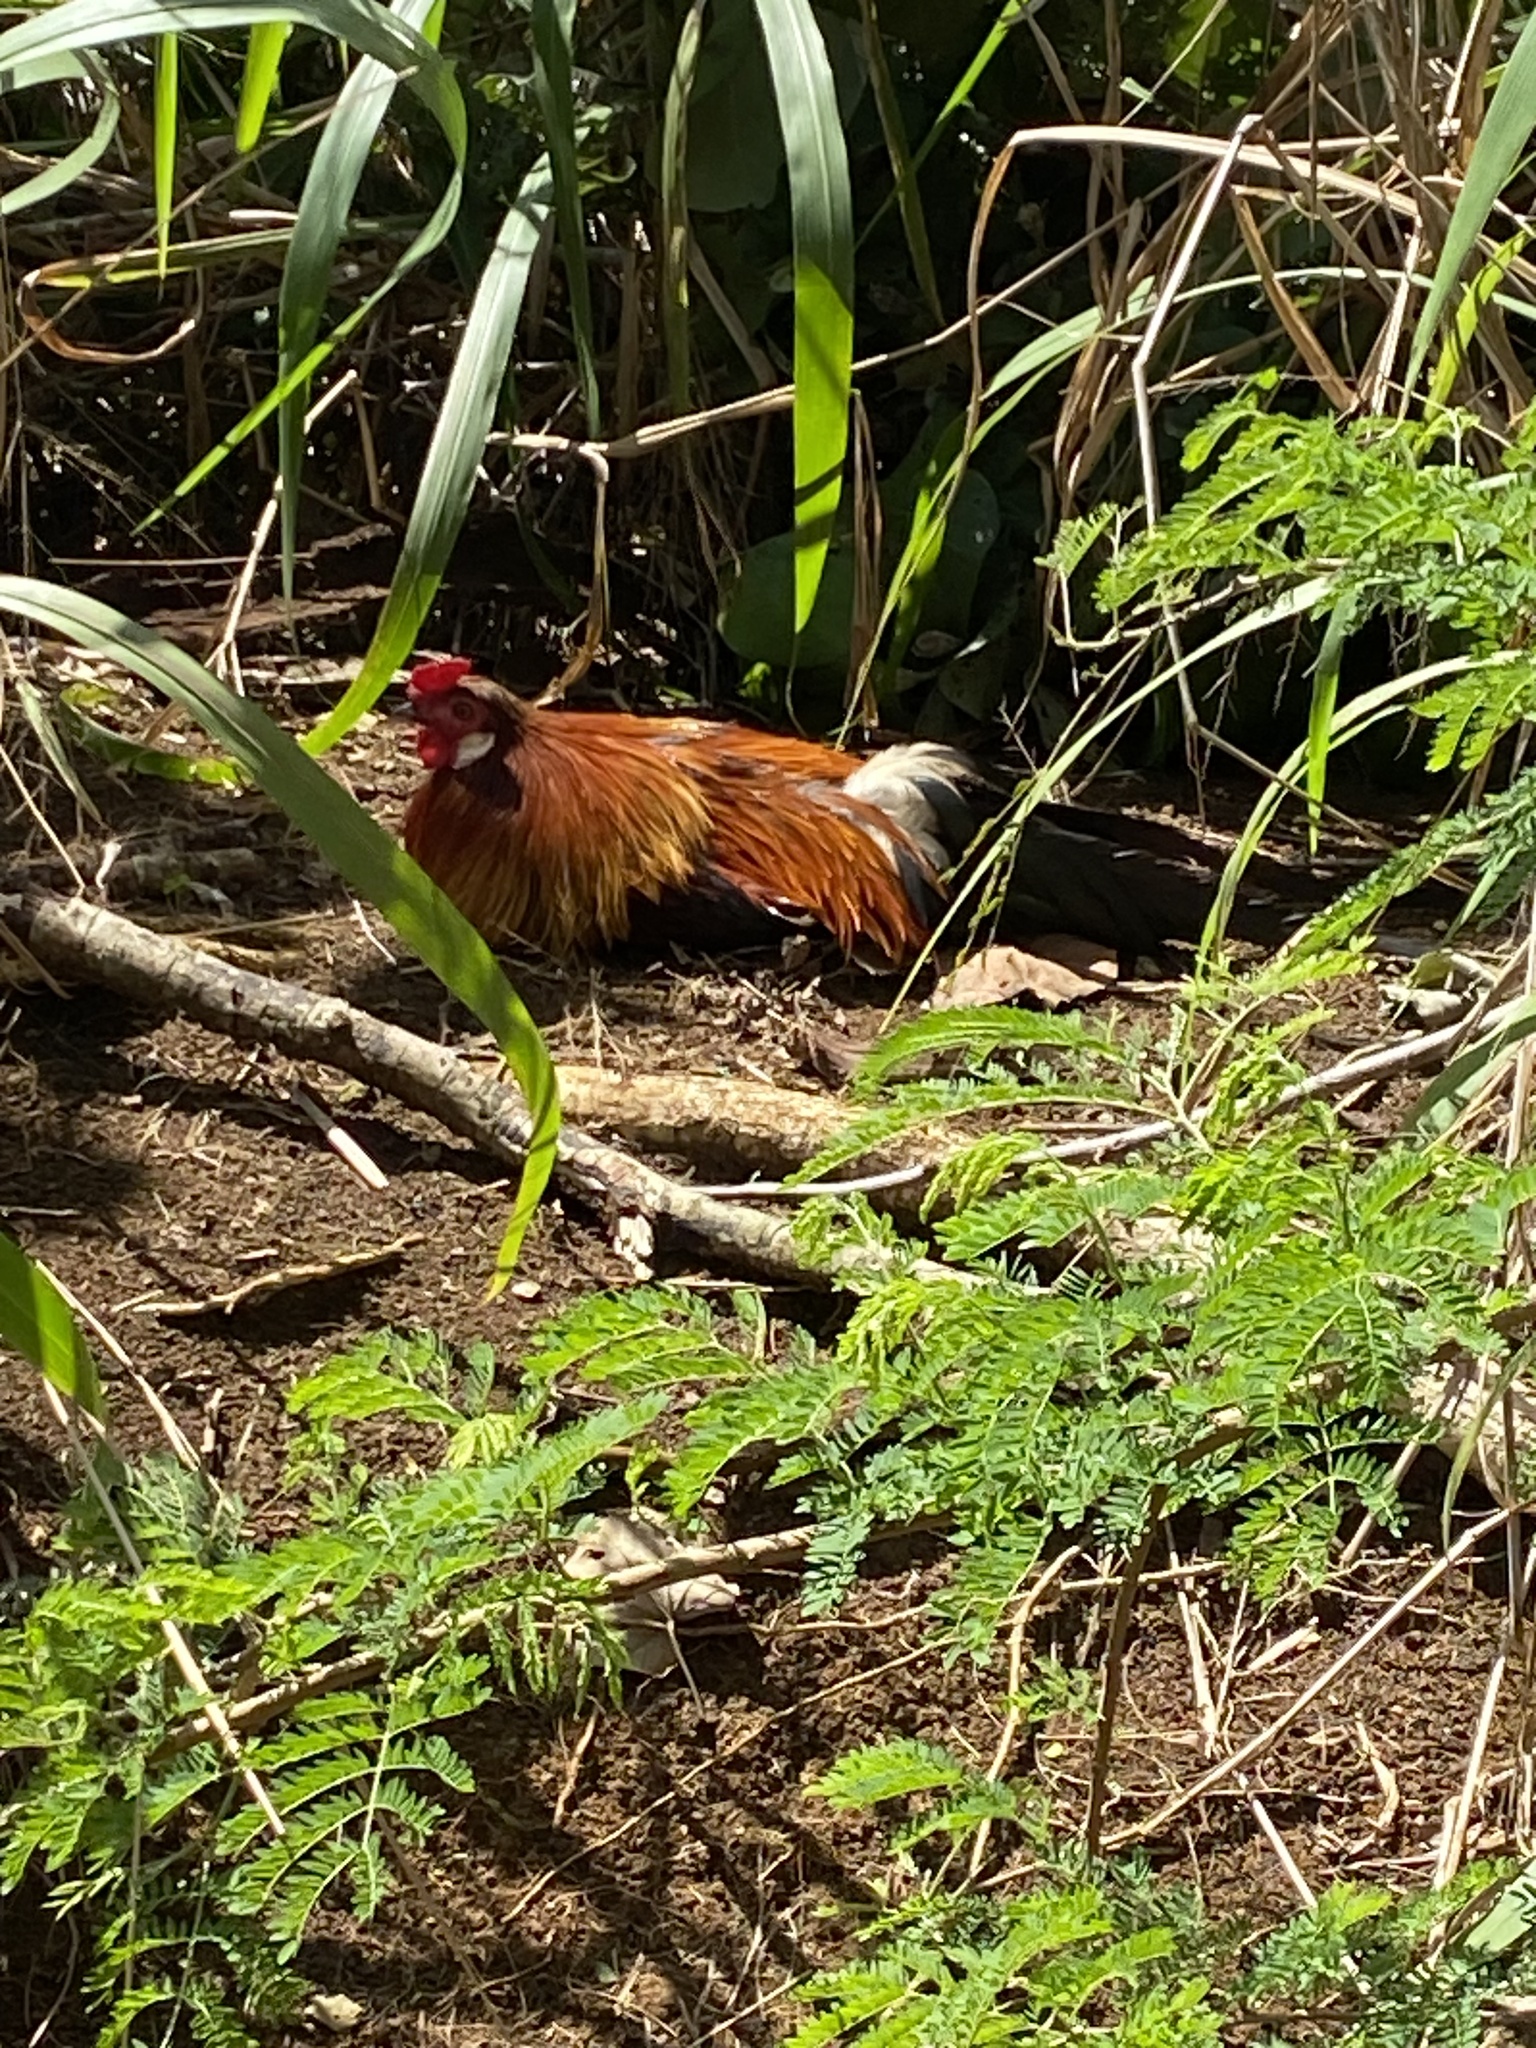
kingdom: Animalia
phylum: Chordata
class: Aves
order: Galliformes
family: Phasianidae
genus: Gallus
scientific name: Gallus gallus
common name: Red junglefowl
